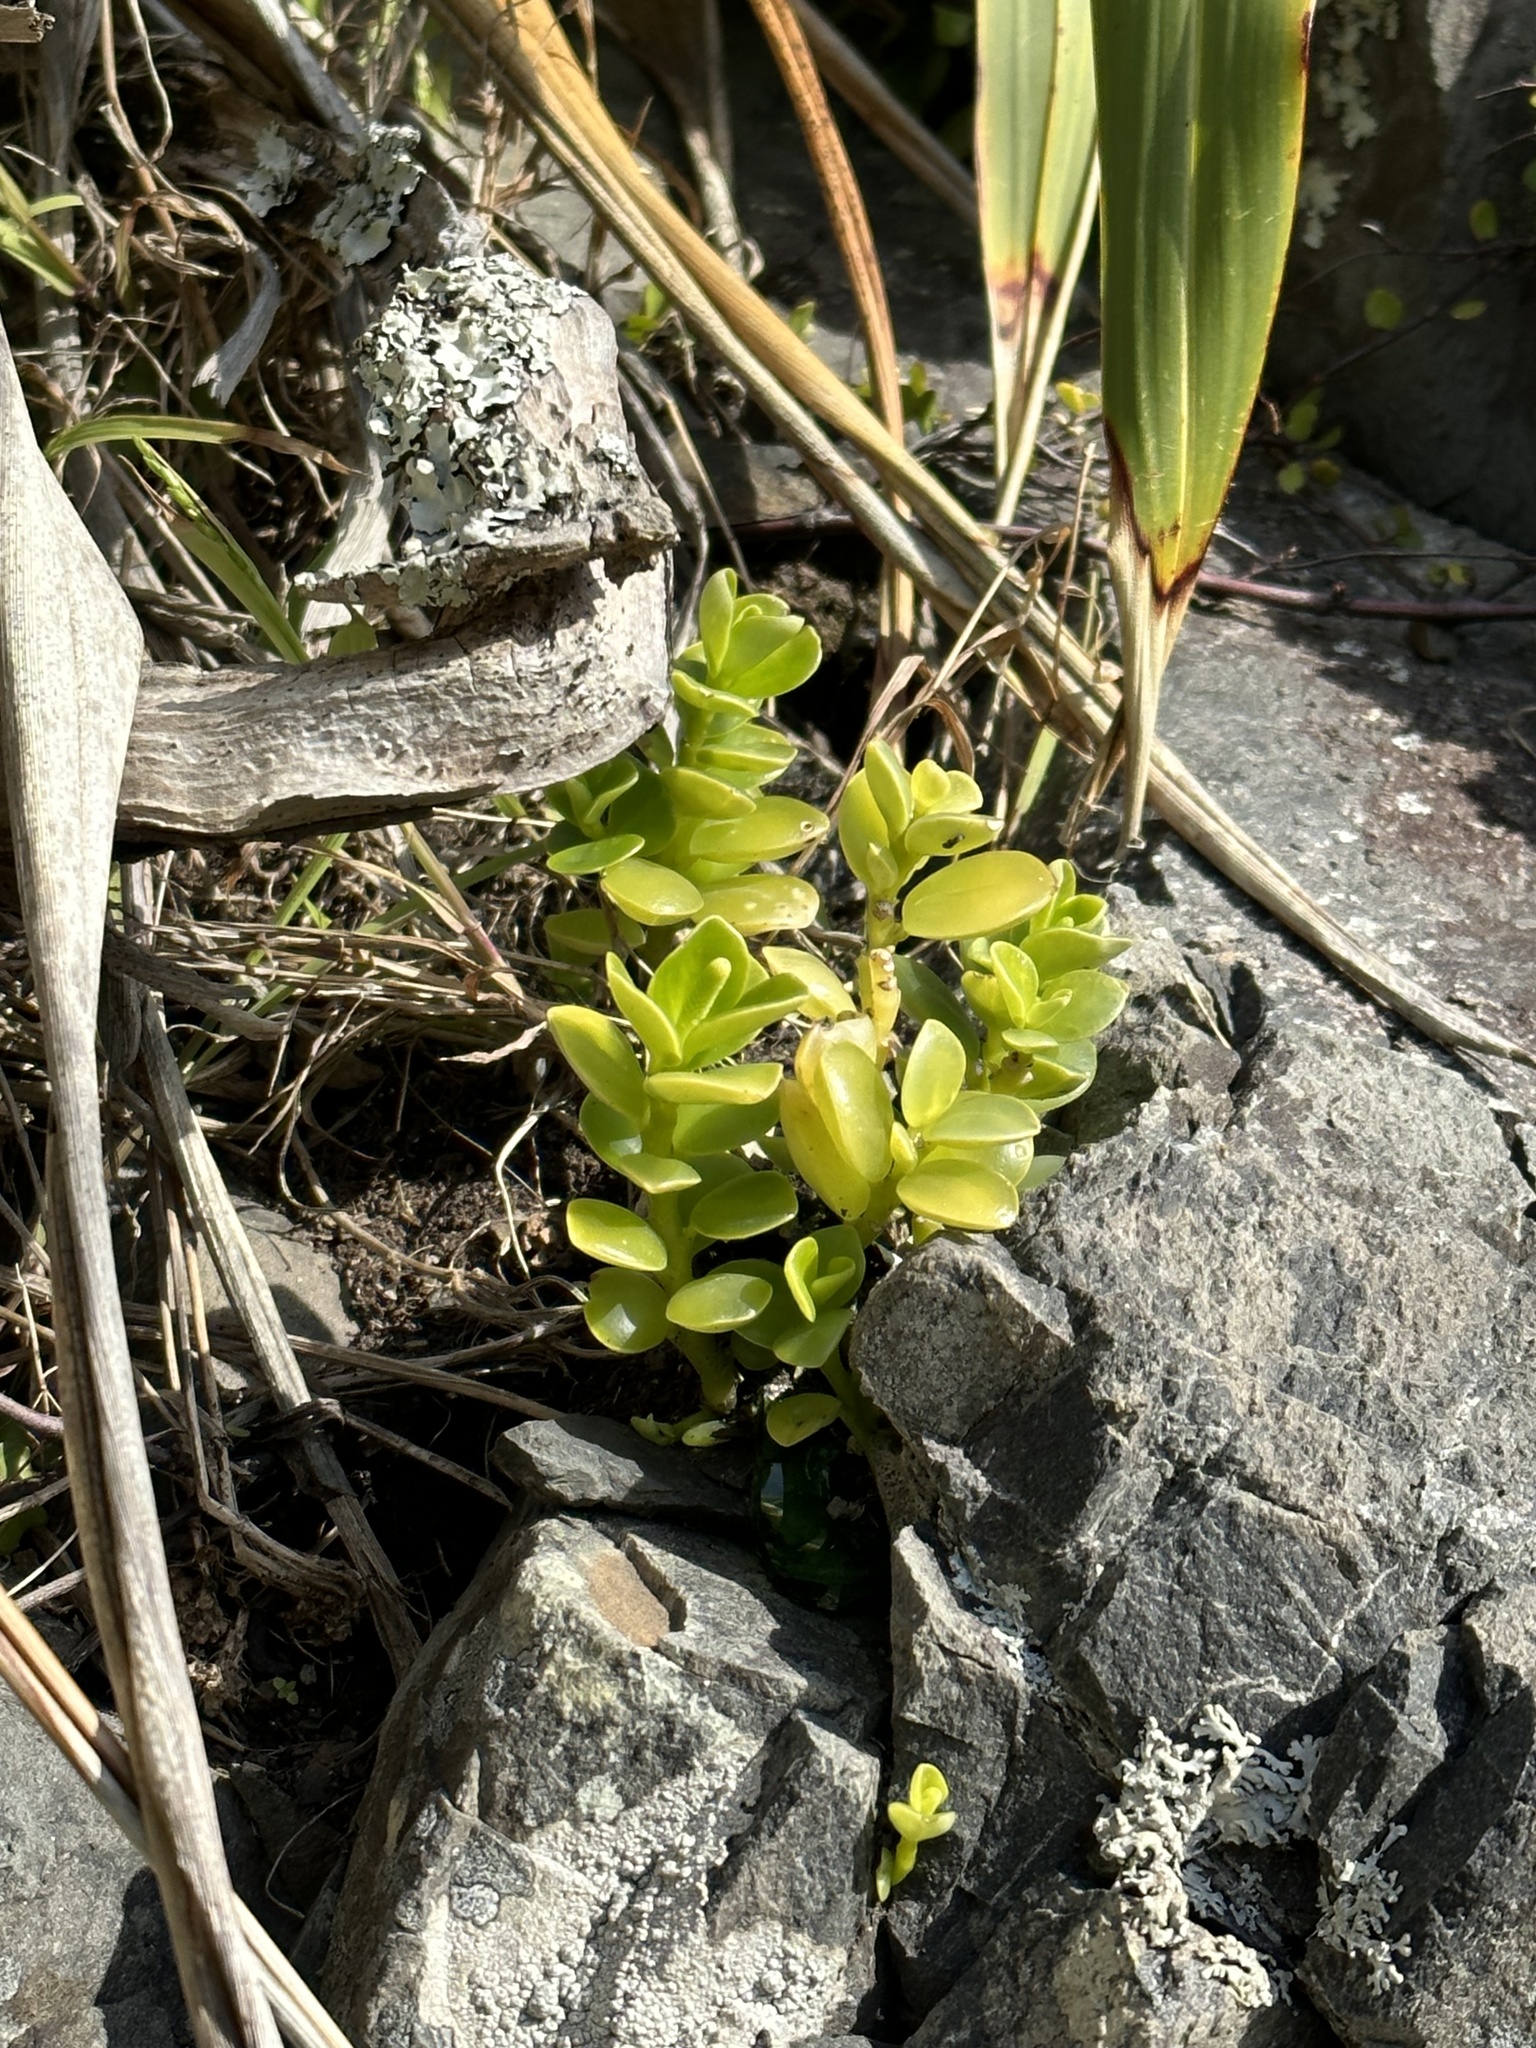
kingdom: Plantae
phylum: Tracheophyta
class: Magnoliopsida
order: Piperales
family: Piperaceae
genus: Peperomia
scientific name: Peperomia urvilleana
